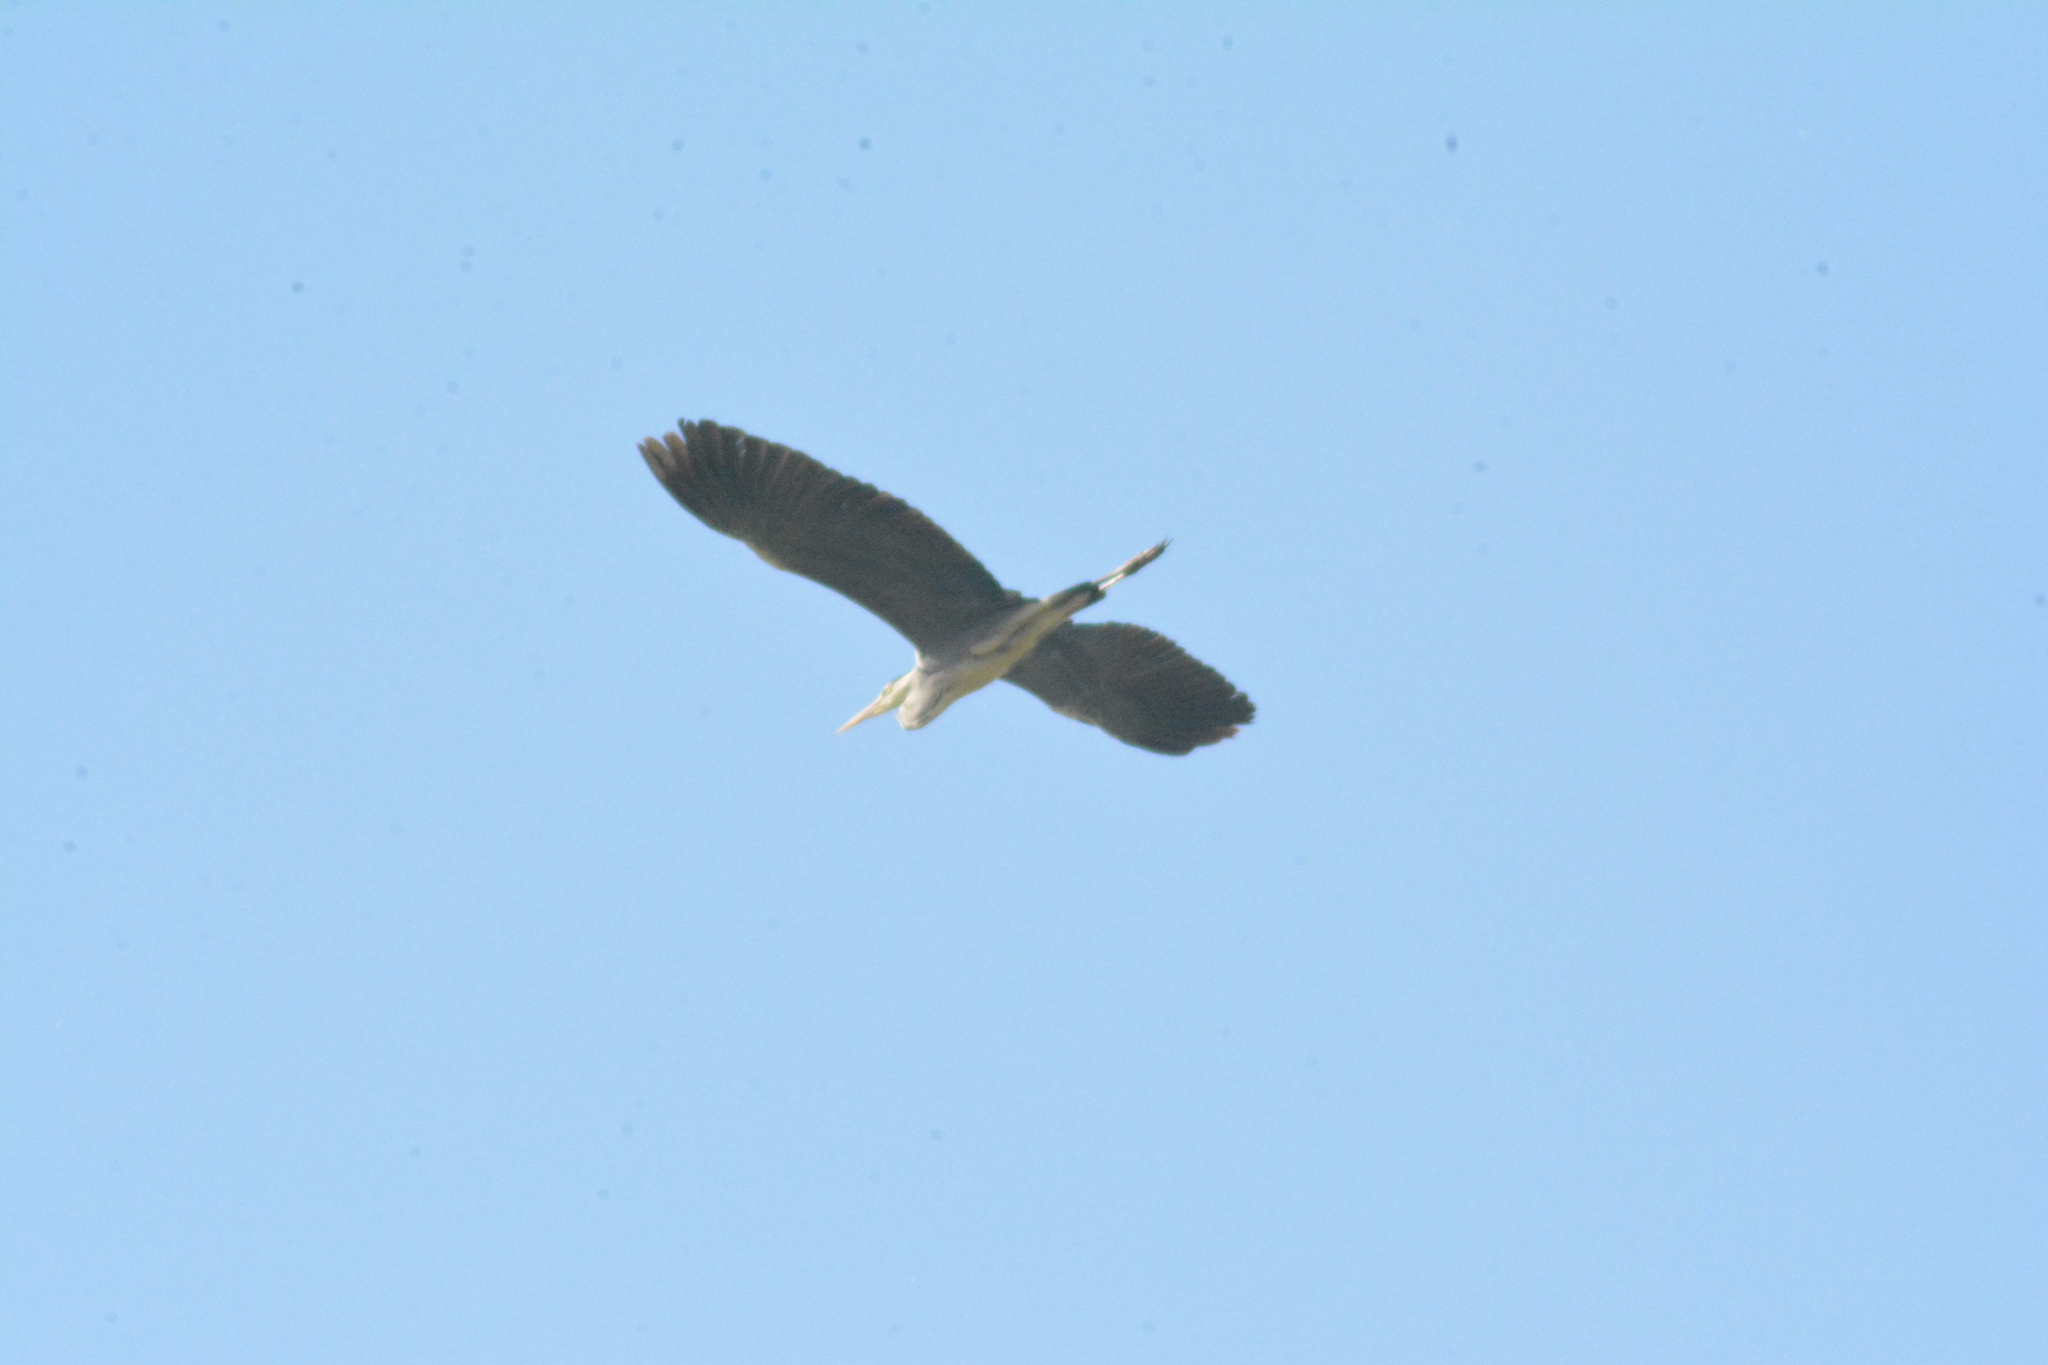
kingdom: Animalia
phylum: Chordata
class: Aves
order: Pelecaniformes
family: Ardeidae
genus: Ardea
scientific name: Ardea cinerea
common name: Grey heron
